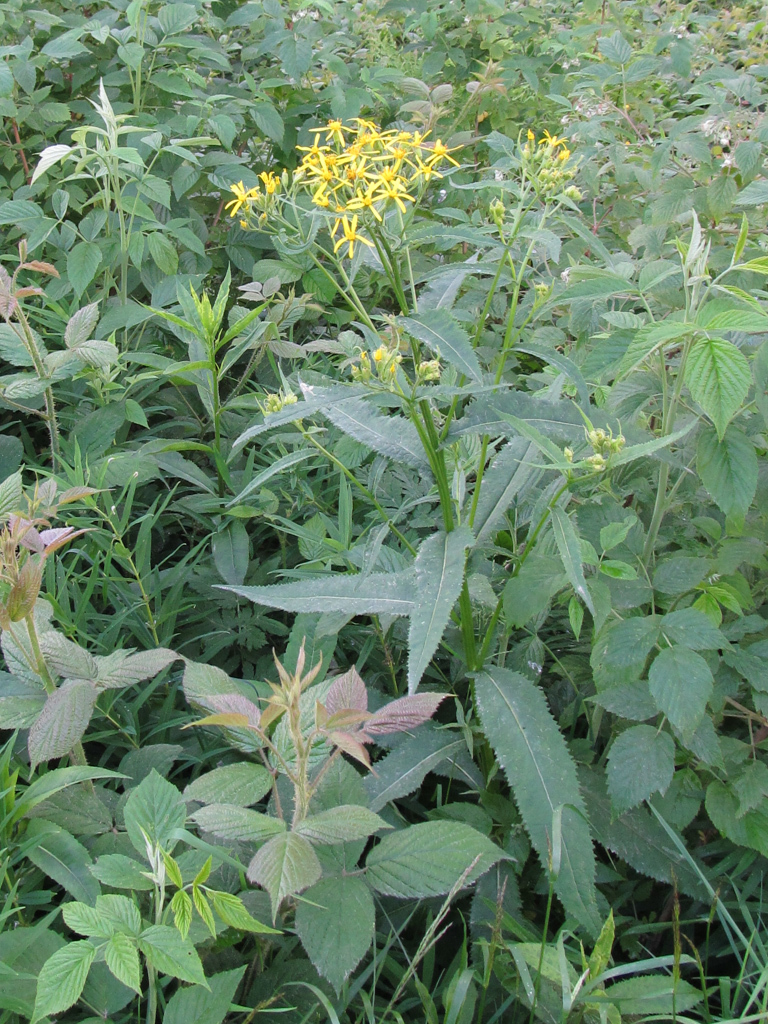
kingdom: Plantae
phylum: Tracheophyta
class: Magnoliopsida
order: Asterales
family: Asteraceae
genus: Senecio
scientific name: Senecio ovatus
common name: Wood ragwort
